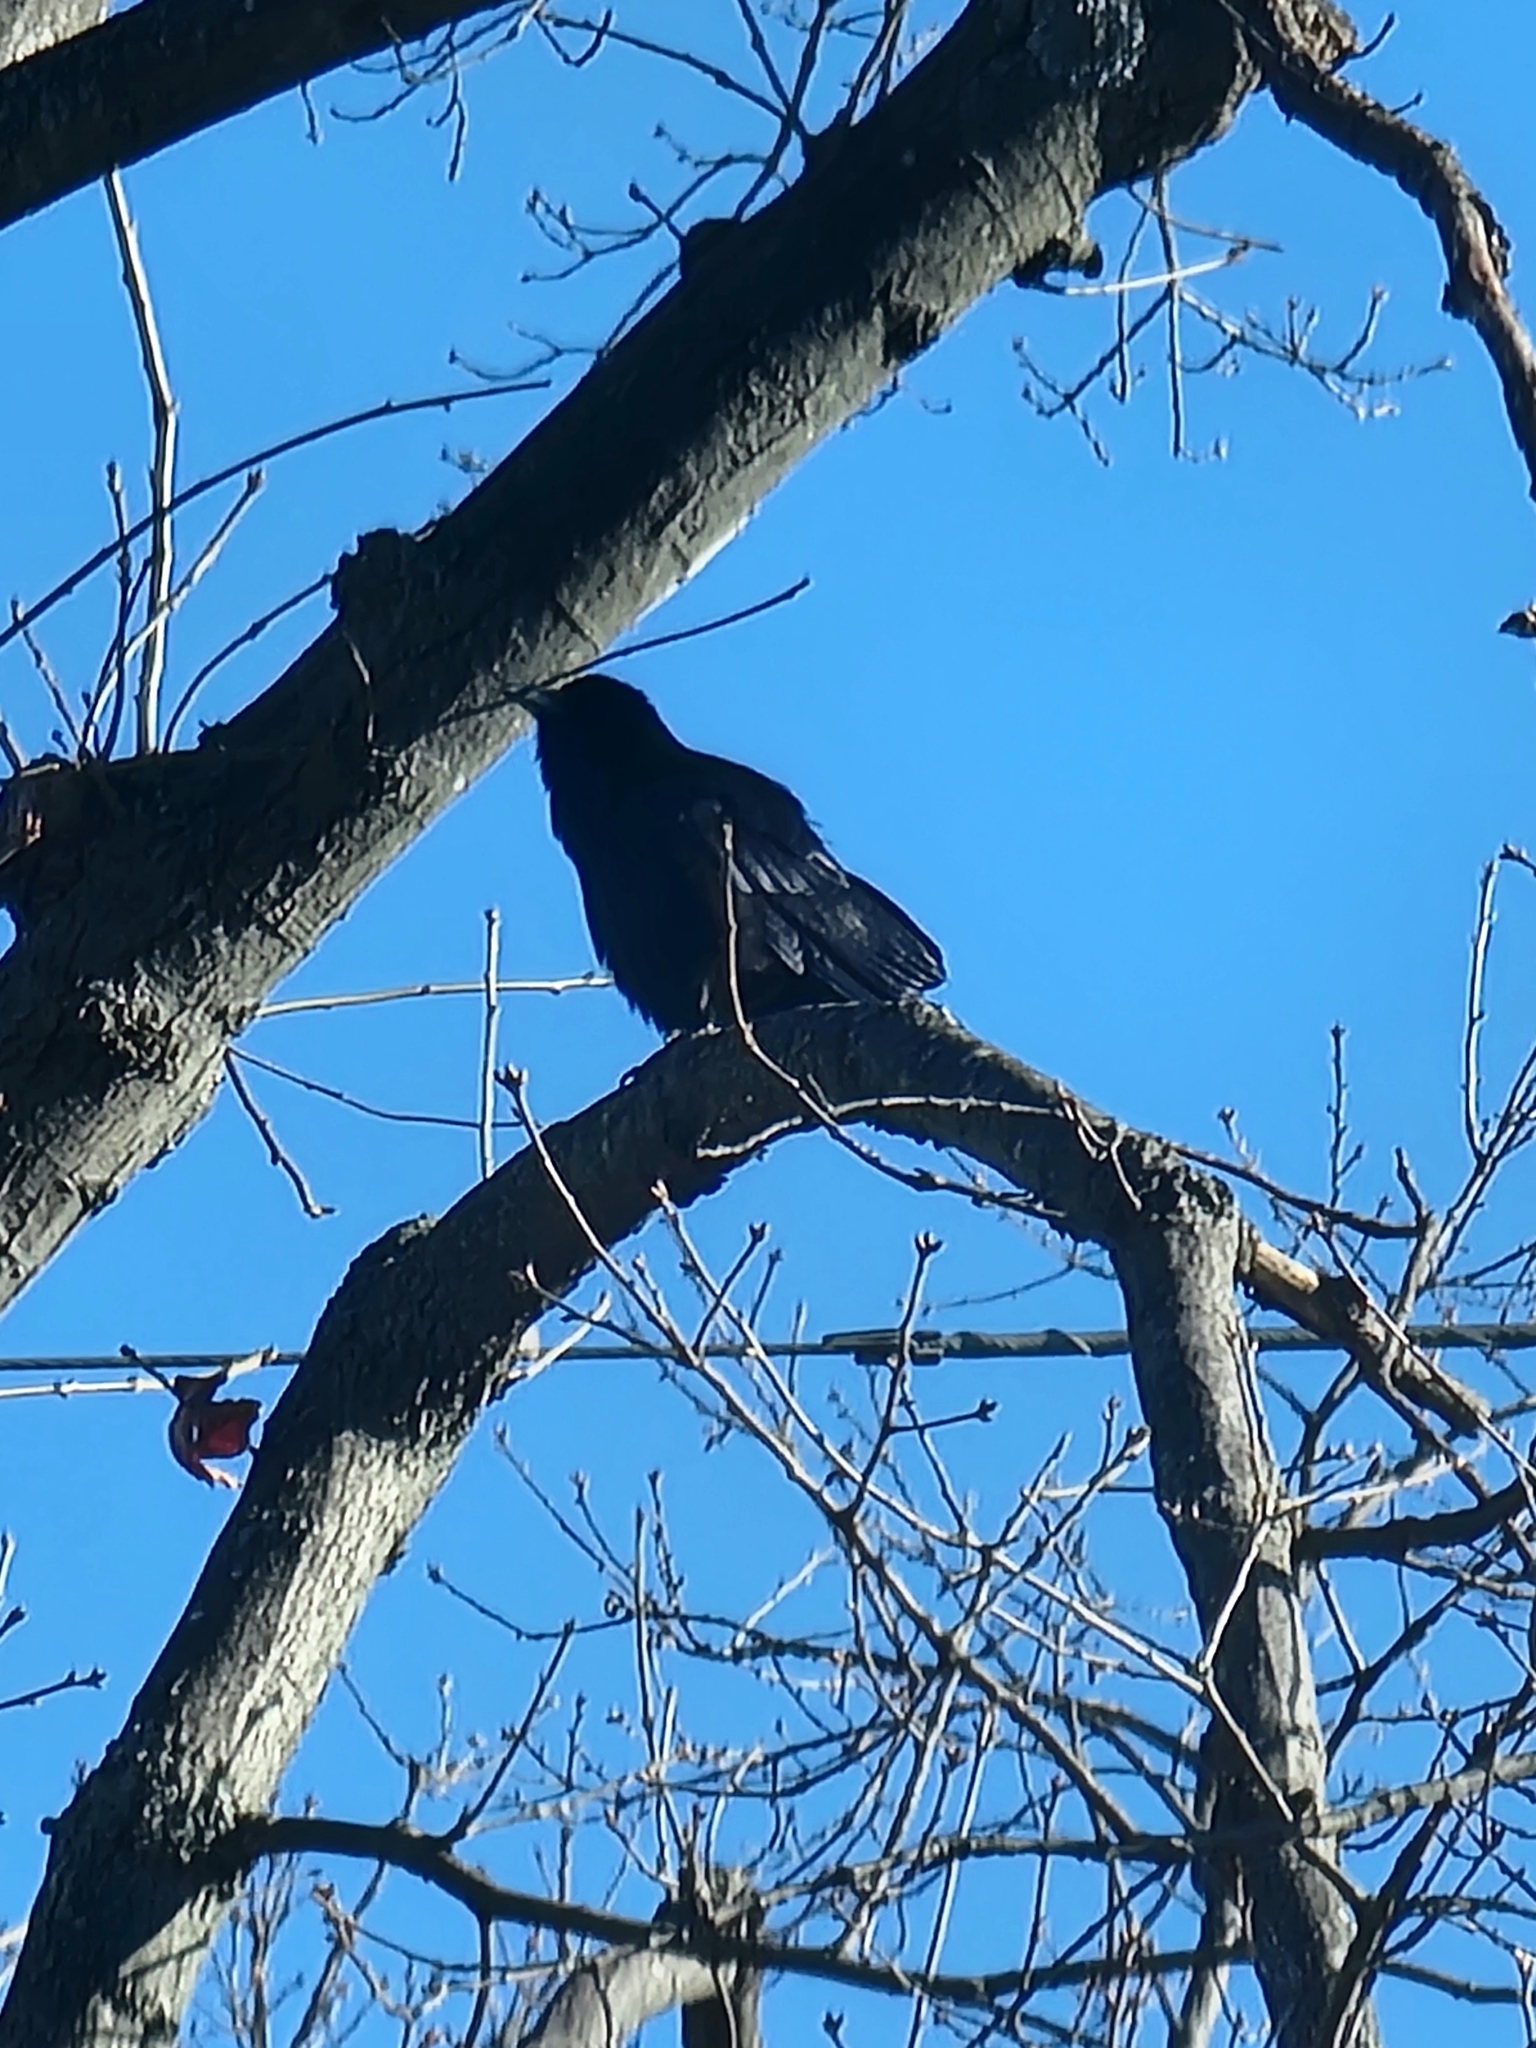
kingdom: Animalia
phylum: Chordata
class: Aves
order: Passeriformes
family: Corvidae
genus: Corvus
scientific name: Corvus ossifragus
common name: Fish crow
